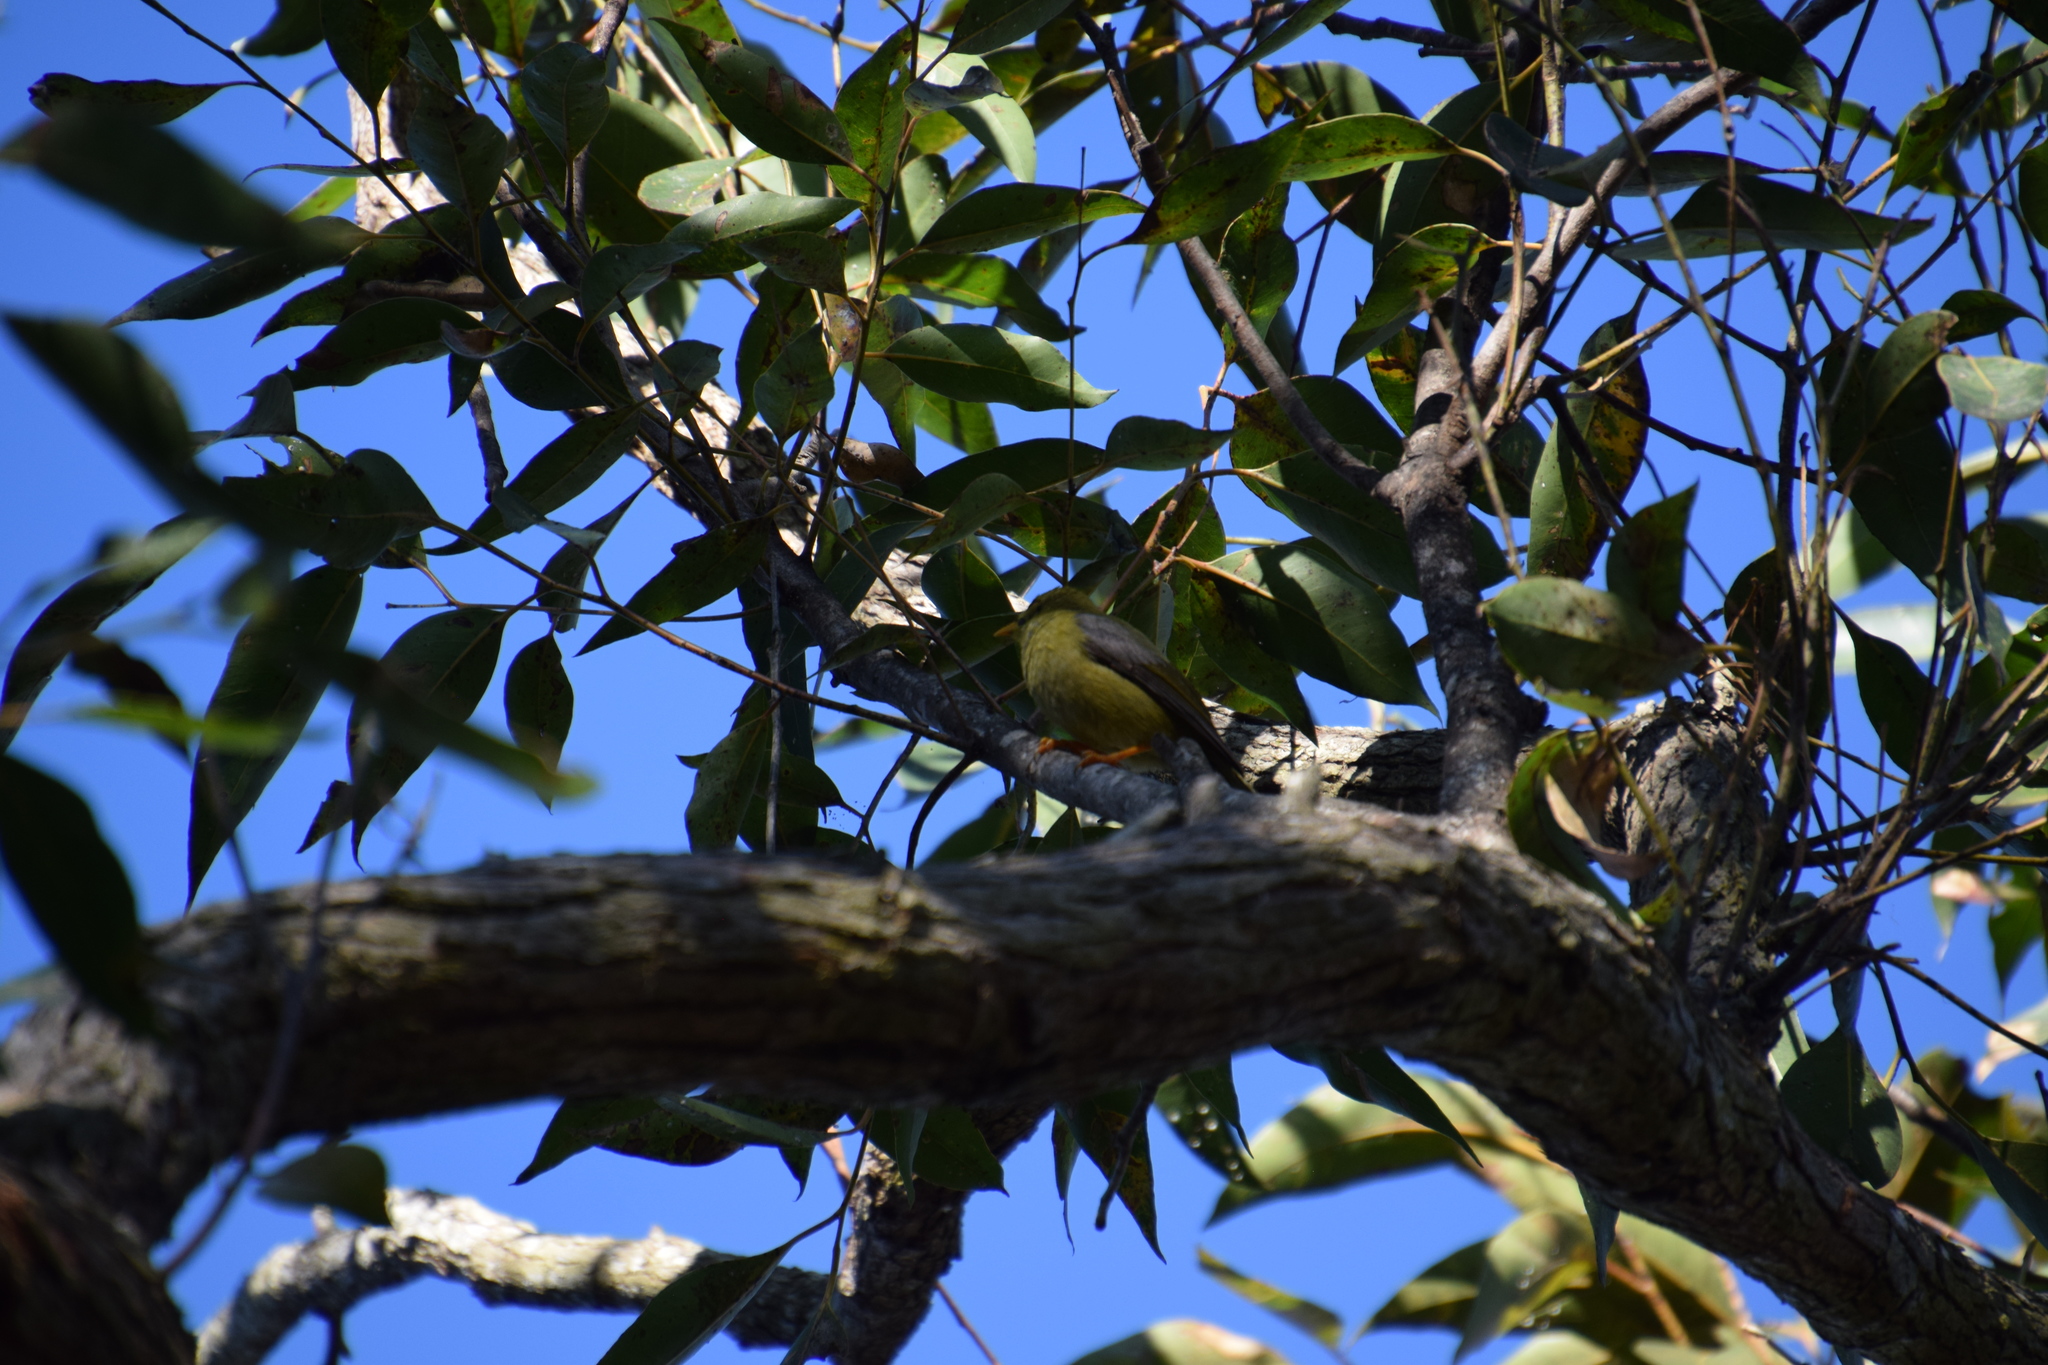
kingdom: Animalia
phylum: Chordata
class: Aves
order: Passeriformes
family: Meliphagidae
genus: Manorina
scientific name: Manorina melanophrys
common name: Bell miner
